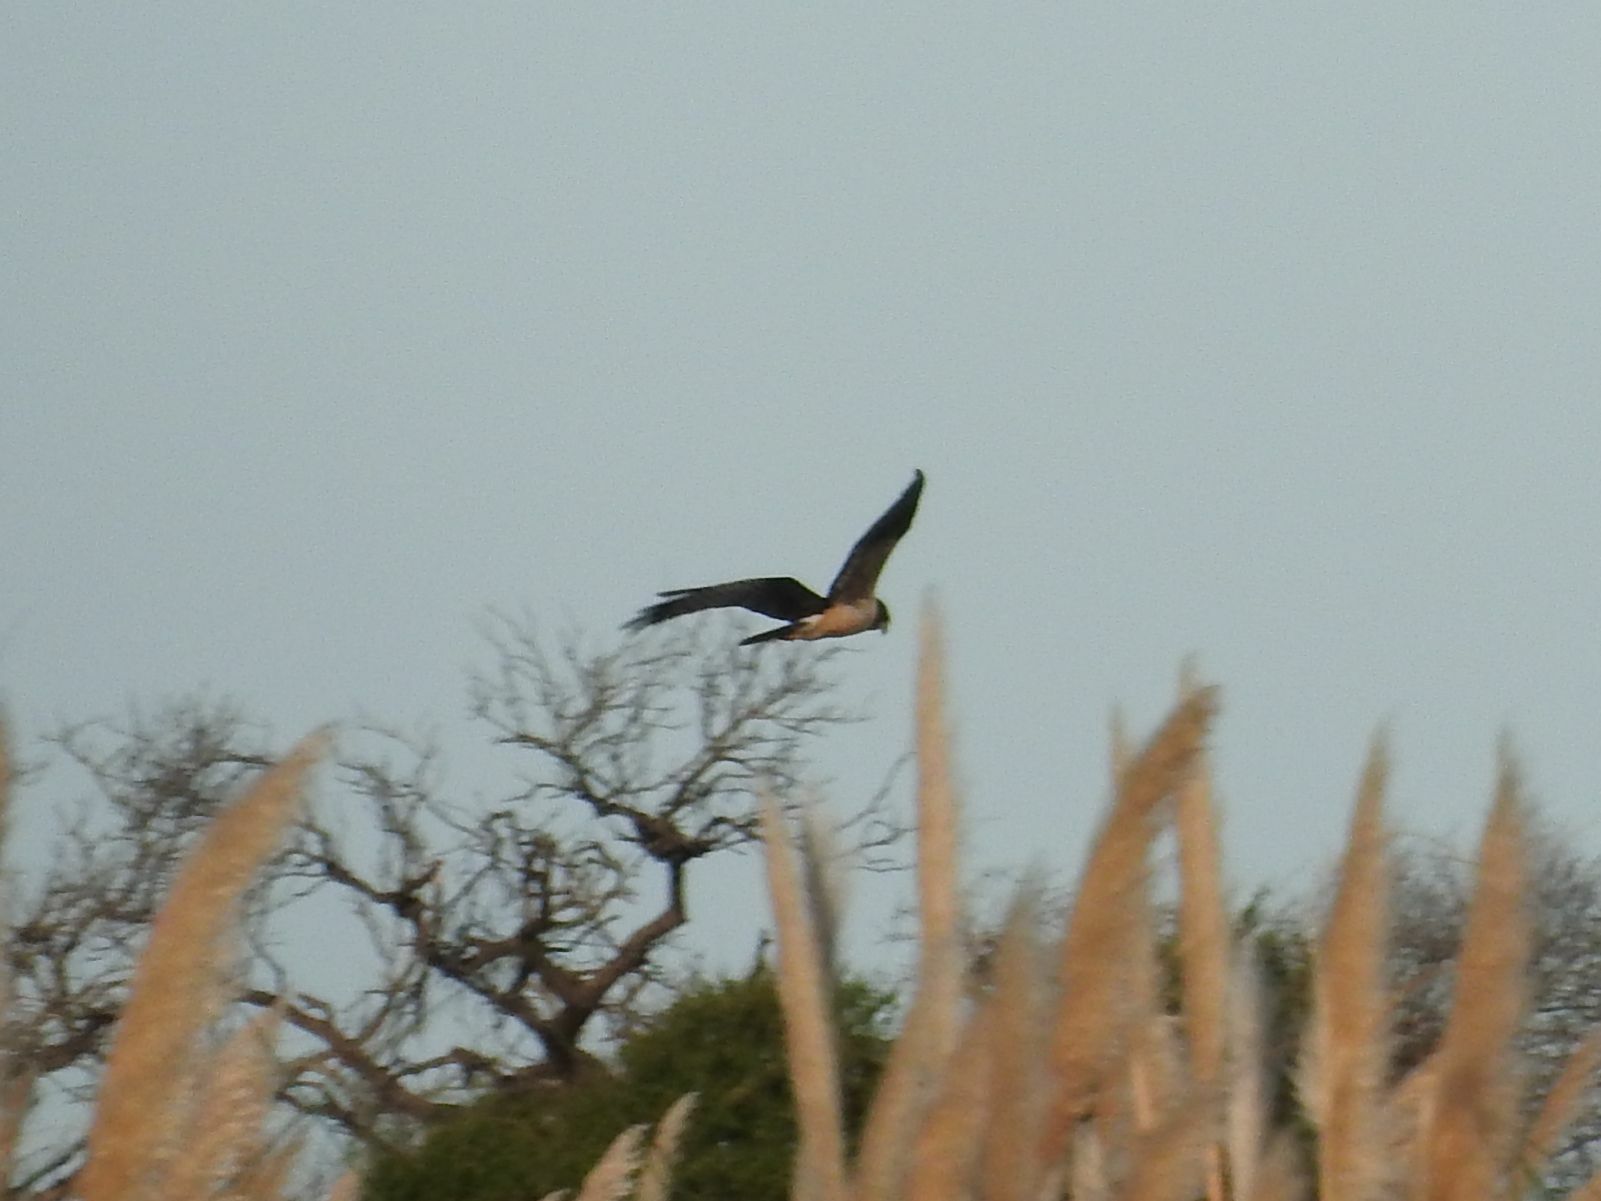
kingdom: Animalia
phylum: Chordata
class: Aves
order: Accipitriformes
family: Accipitridae
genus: Circus
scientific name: Circus buffoni
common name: Long-winged harrier
